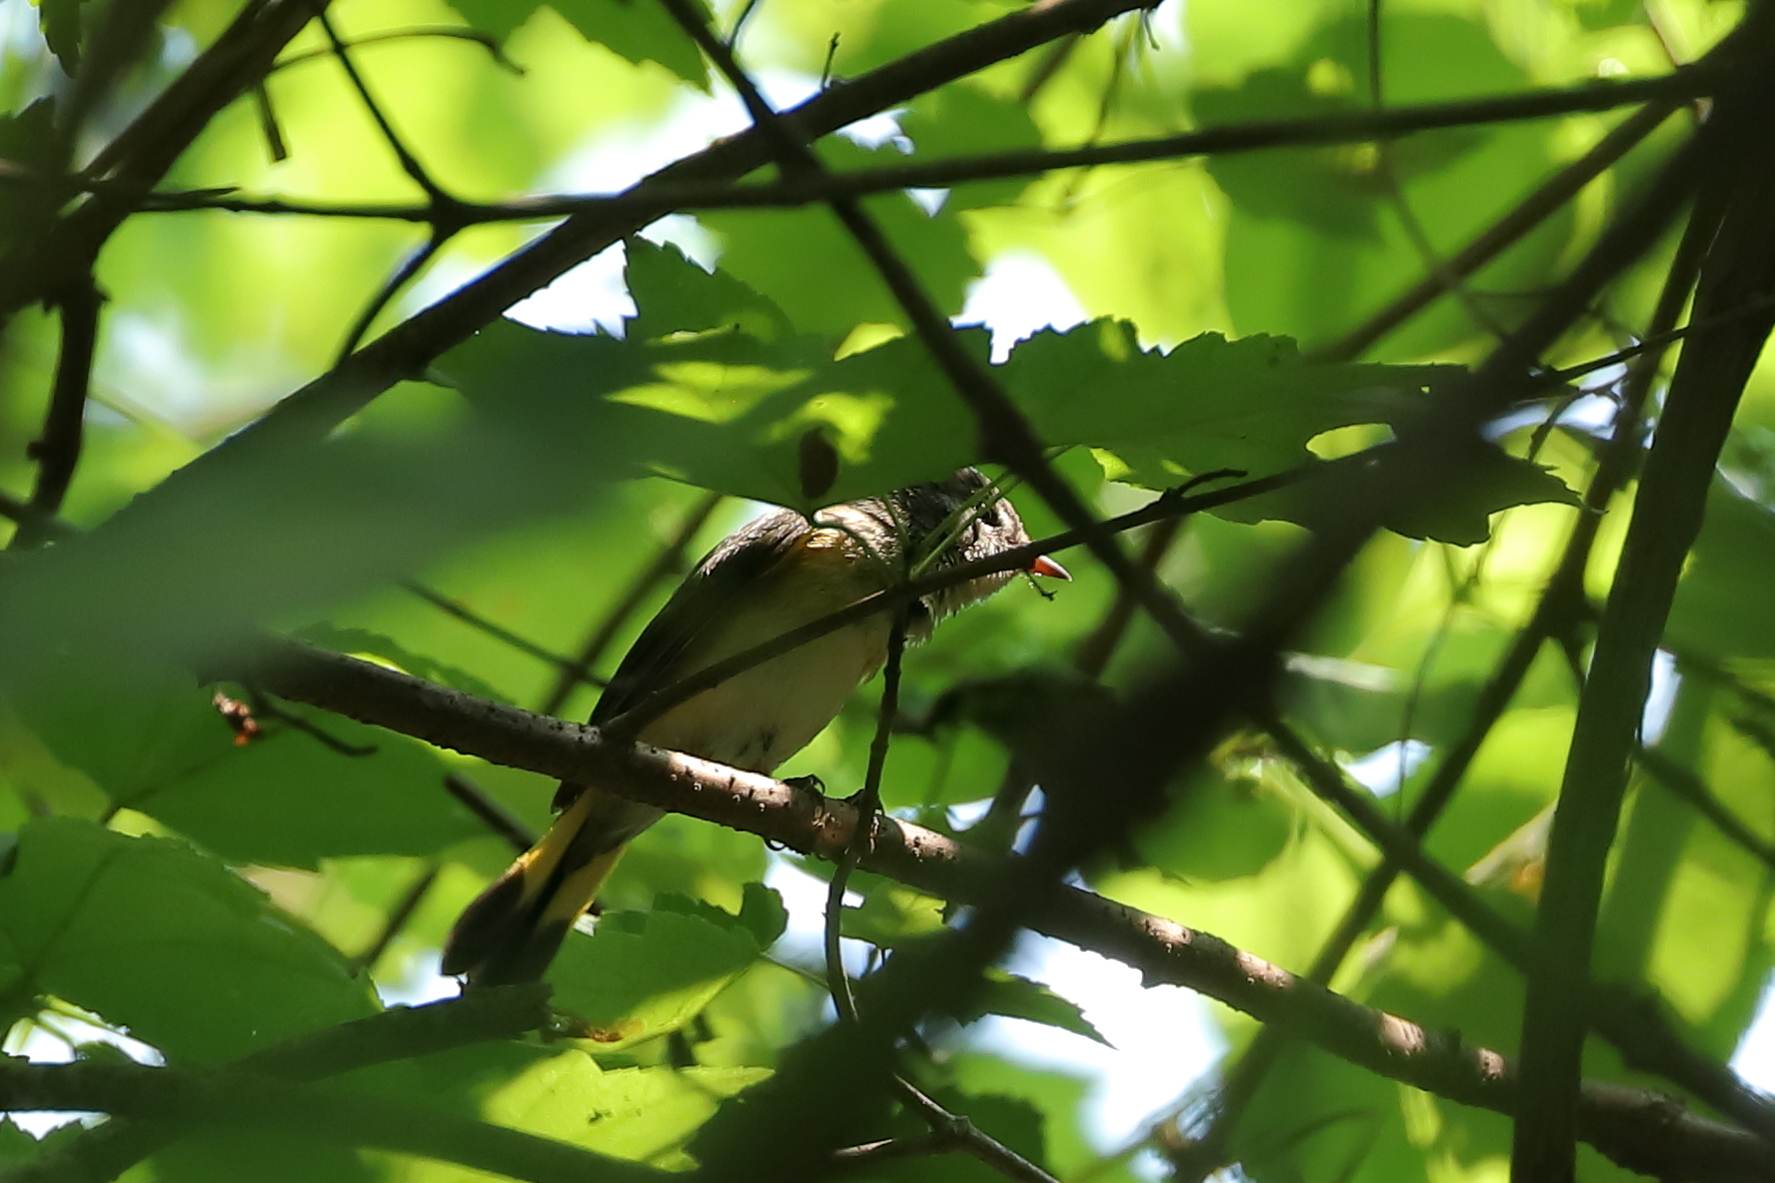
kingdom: Animalia
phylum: Chordata
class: Aves
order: Passeriformes
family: Parulidae
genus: Setophaga
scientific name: Setophaga ruticilla
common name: American redstart
